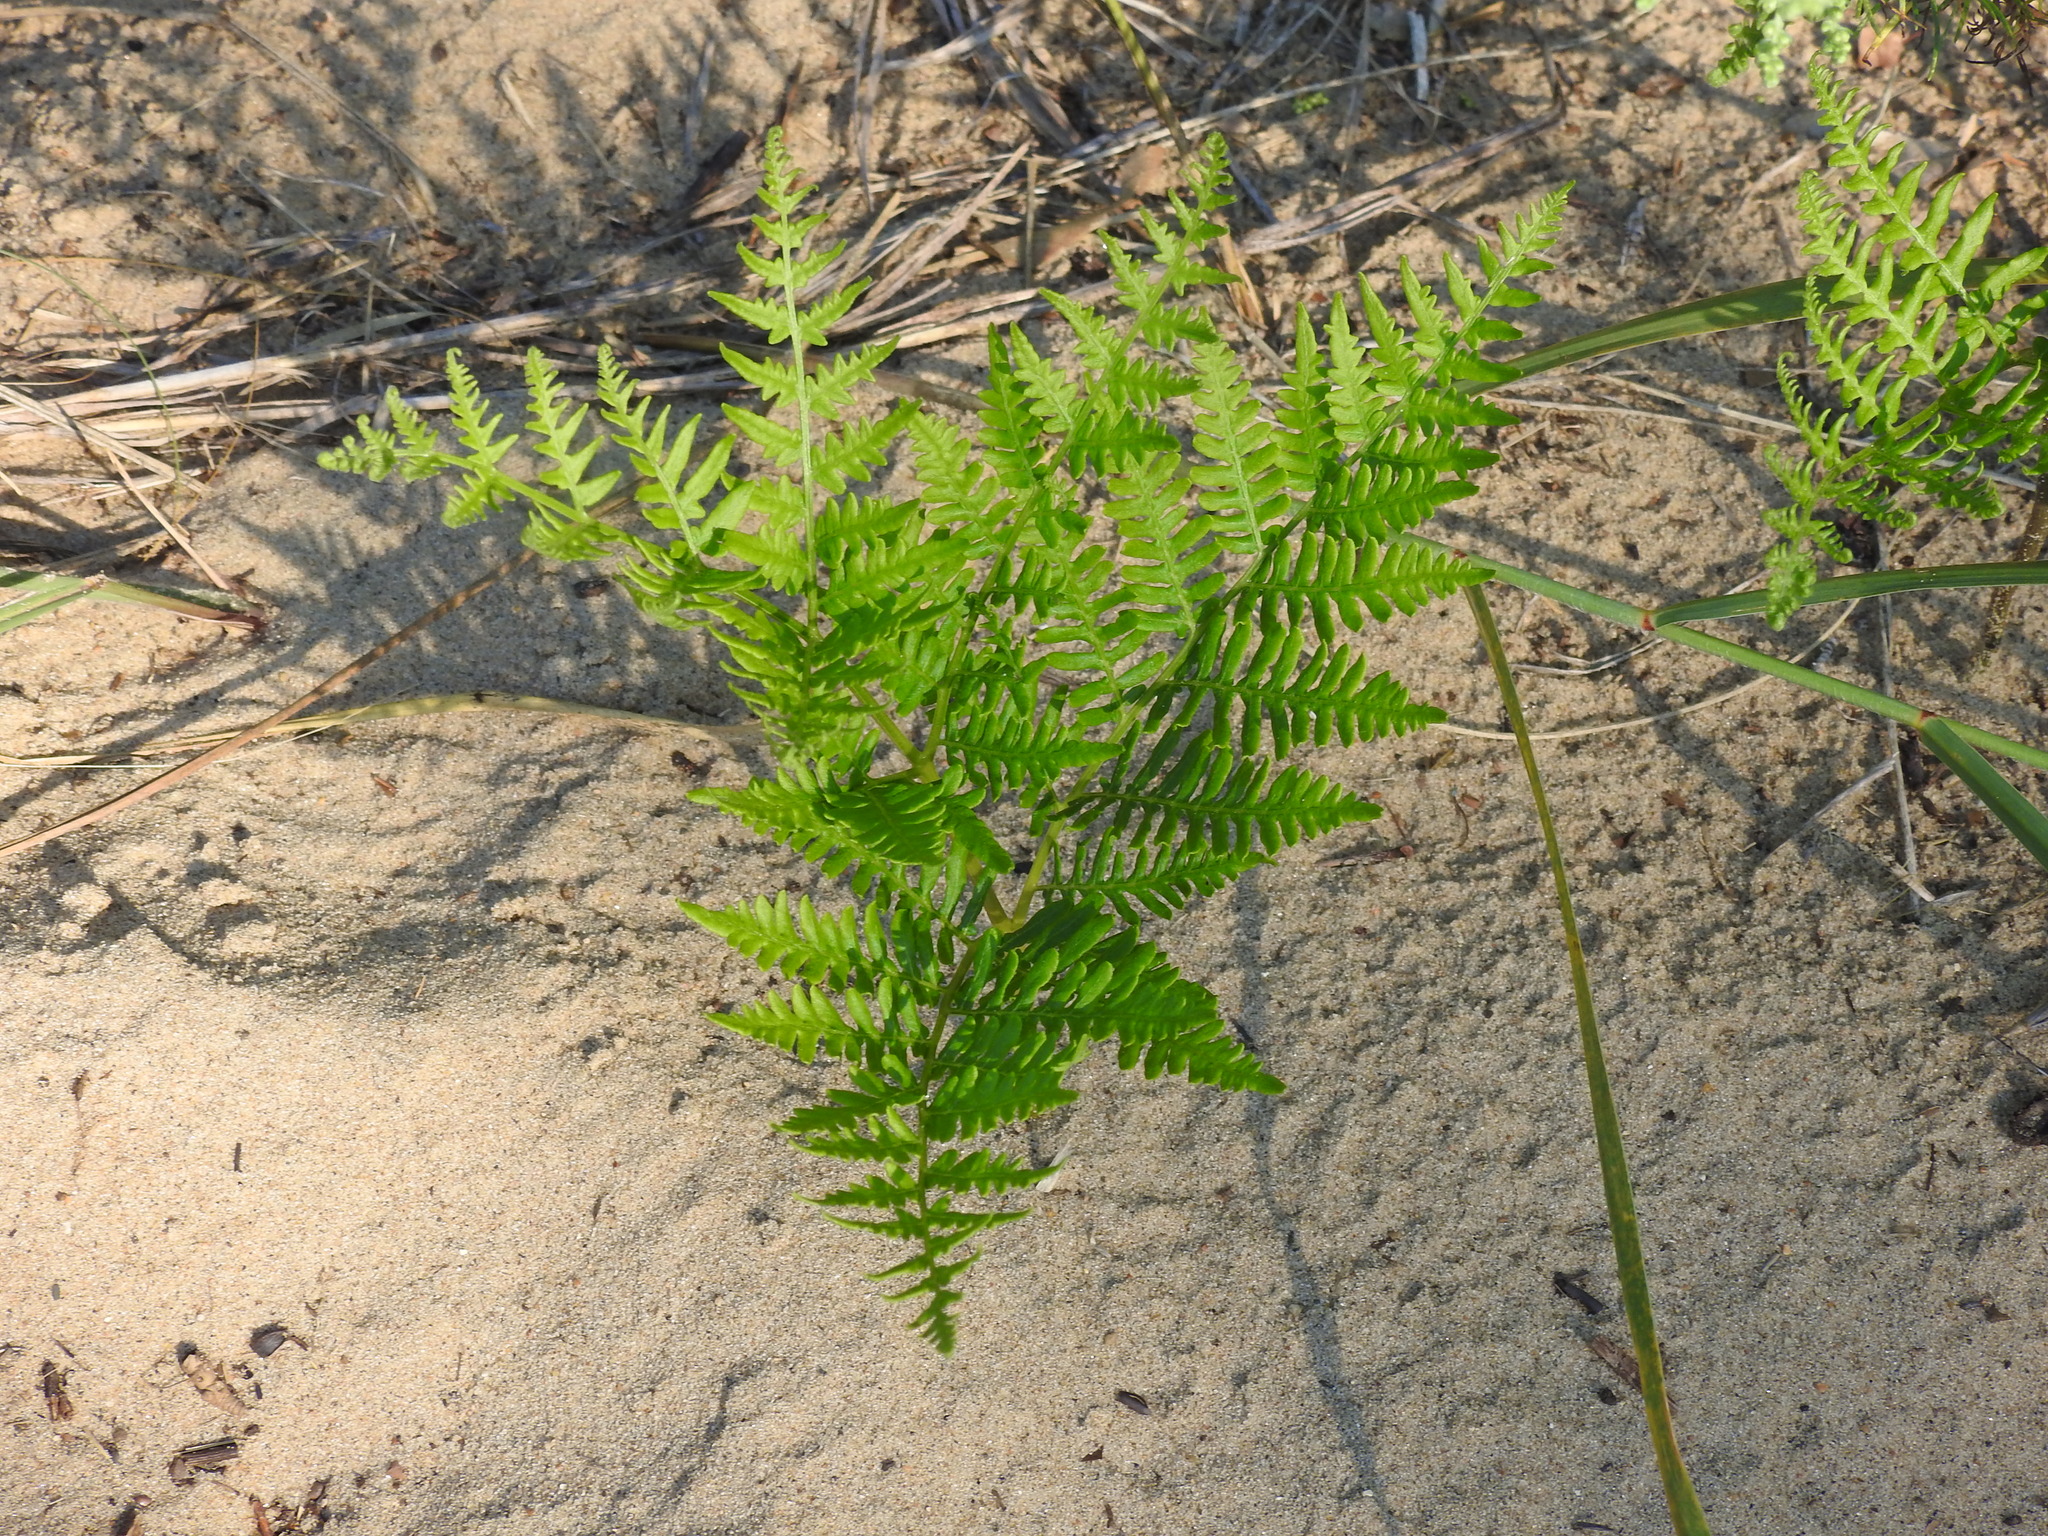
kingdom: Plantae
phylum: Tracheophyta
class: Polypodiopsida
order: Polypodiales
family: Dennstaedtiaceae
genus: Pteridium
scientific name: Pteridium aquilinum
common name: Bracken
